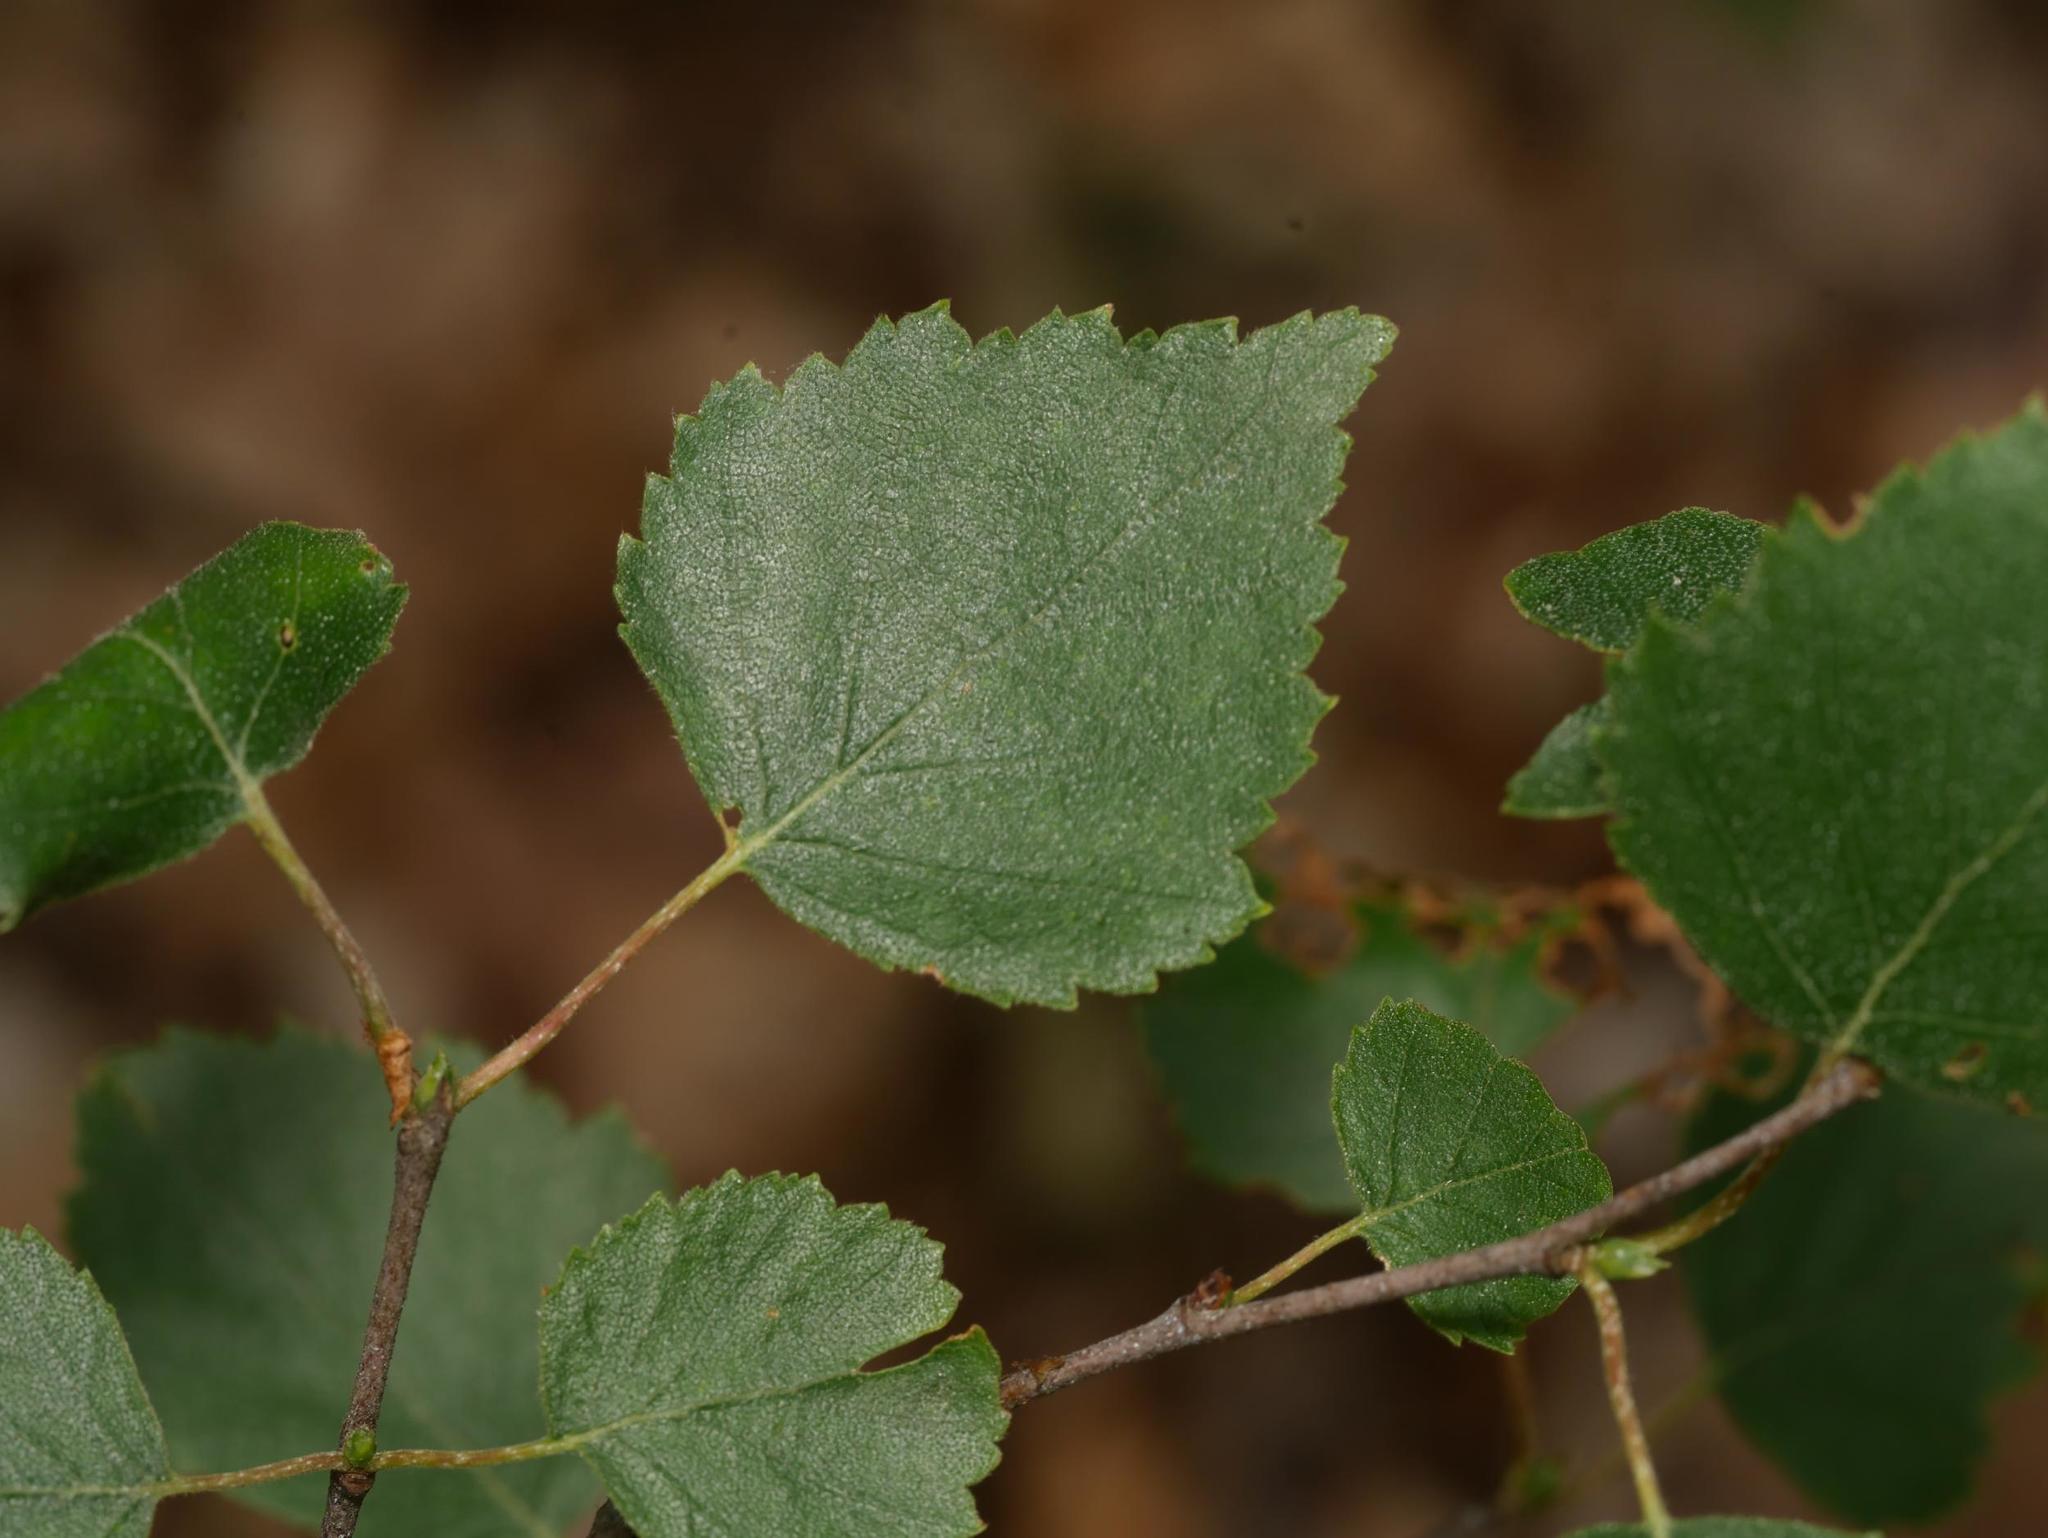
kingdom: Plantae
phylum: Tracheophyta
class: Magnoliopsida
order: Fagales
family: Betulaceae
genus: Betula
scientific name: Betula pendula
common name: Silver birch
